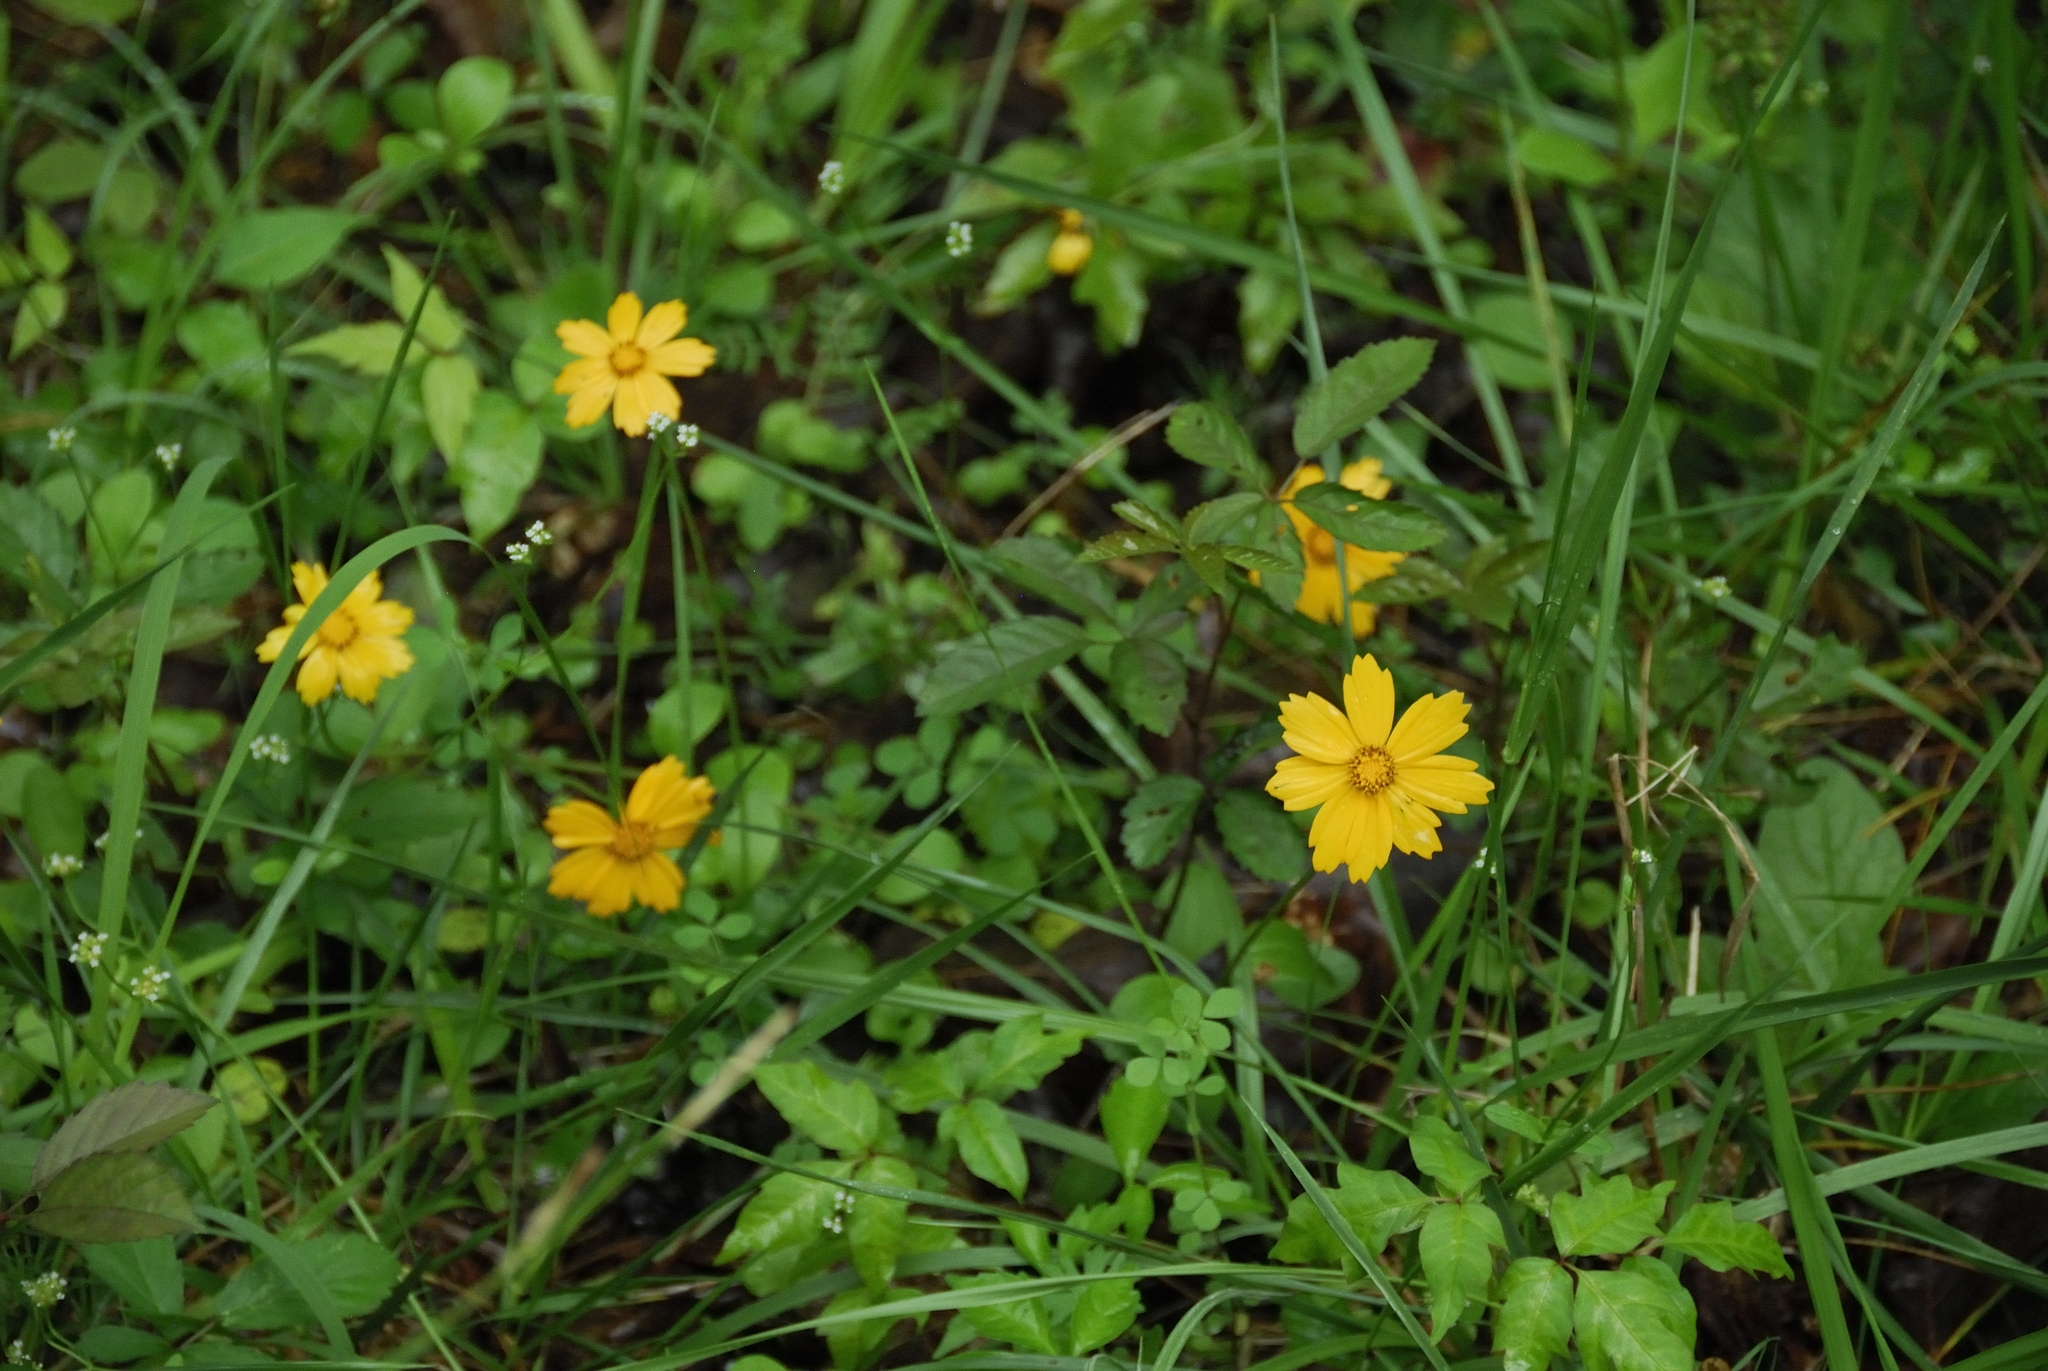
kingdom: Plantae
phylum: Tracheophyta
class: Magnoliopsida
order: Asterales
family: Asteraceae
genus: Coreopsis
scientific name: Coreopsis auriculata
